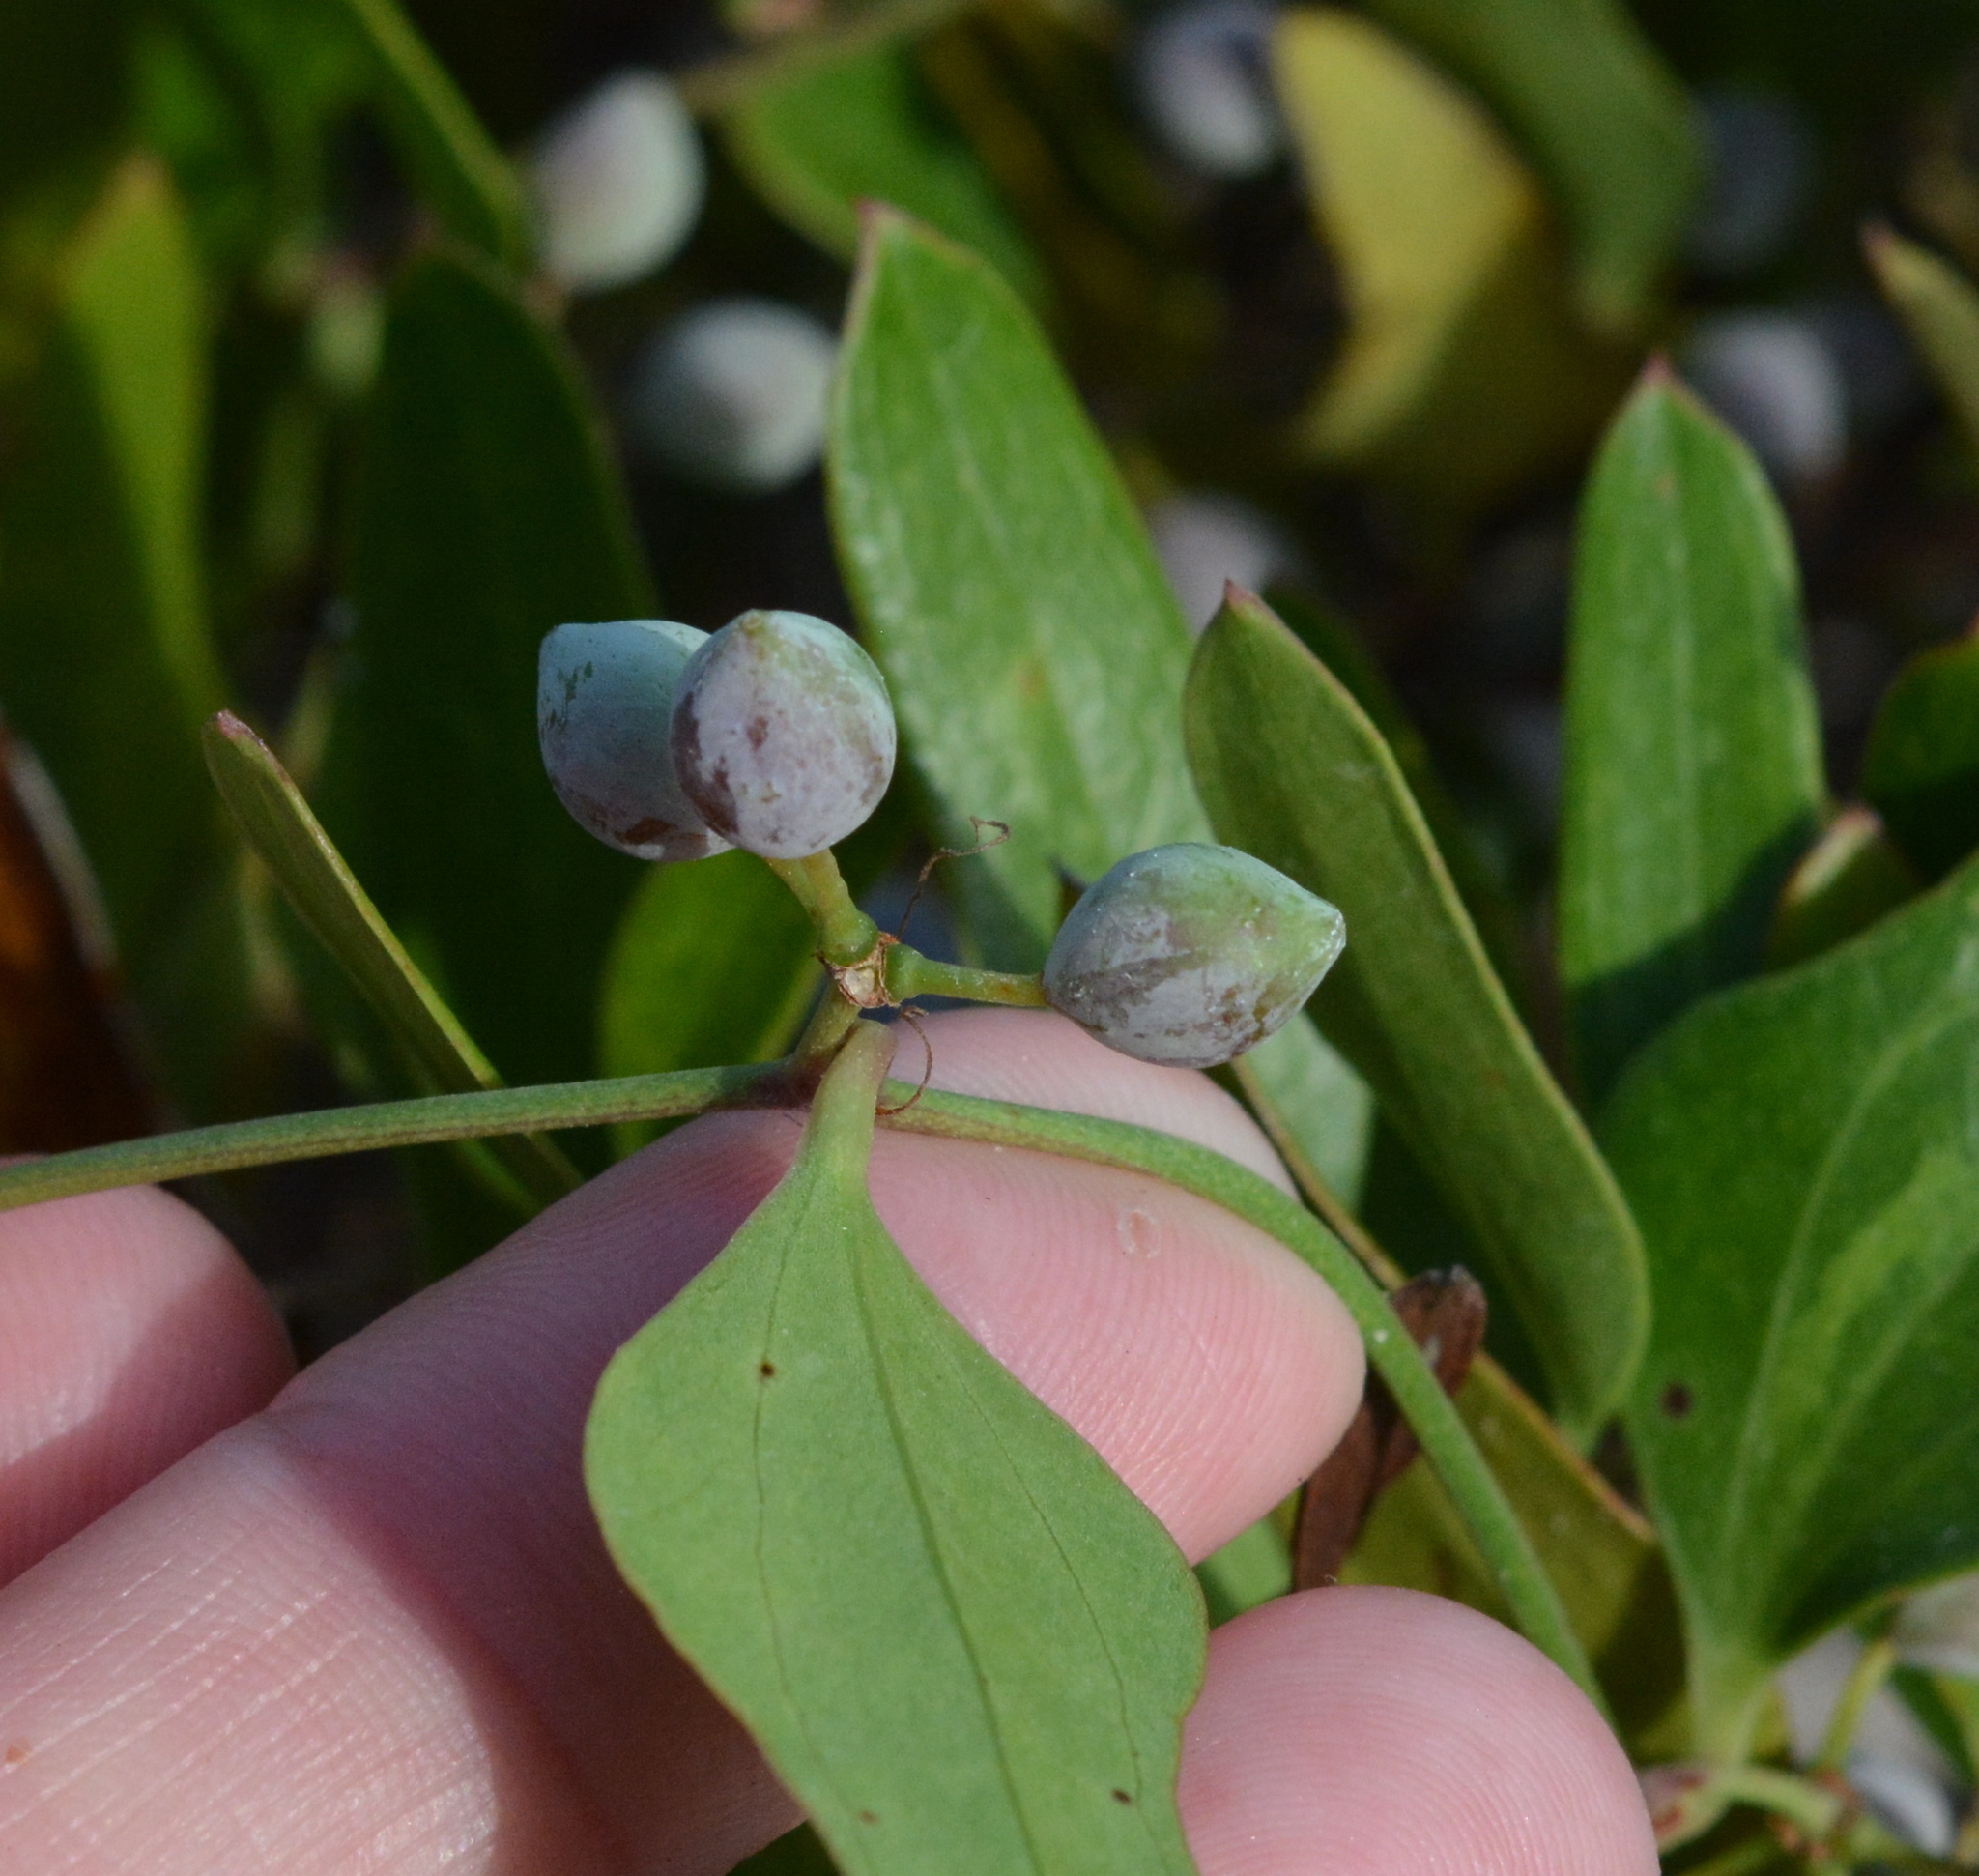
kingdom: Plantae
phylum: Tracheophyta
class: Liliopsida
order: Liliales
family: Smilacaceae
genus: Smilax
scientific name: Smilax auriculata
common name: Wild bamboo
